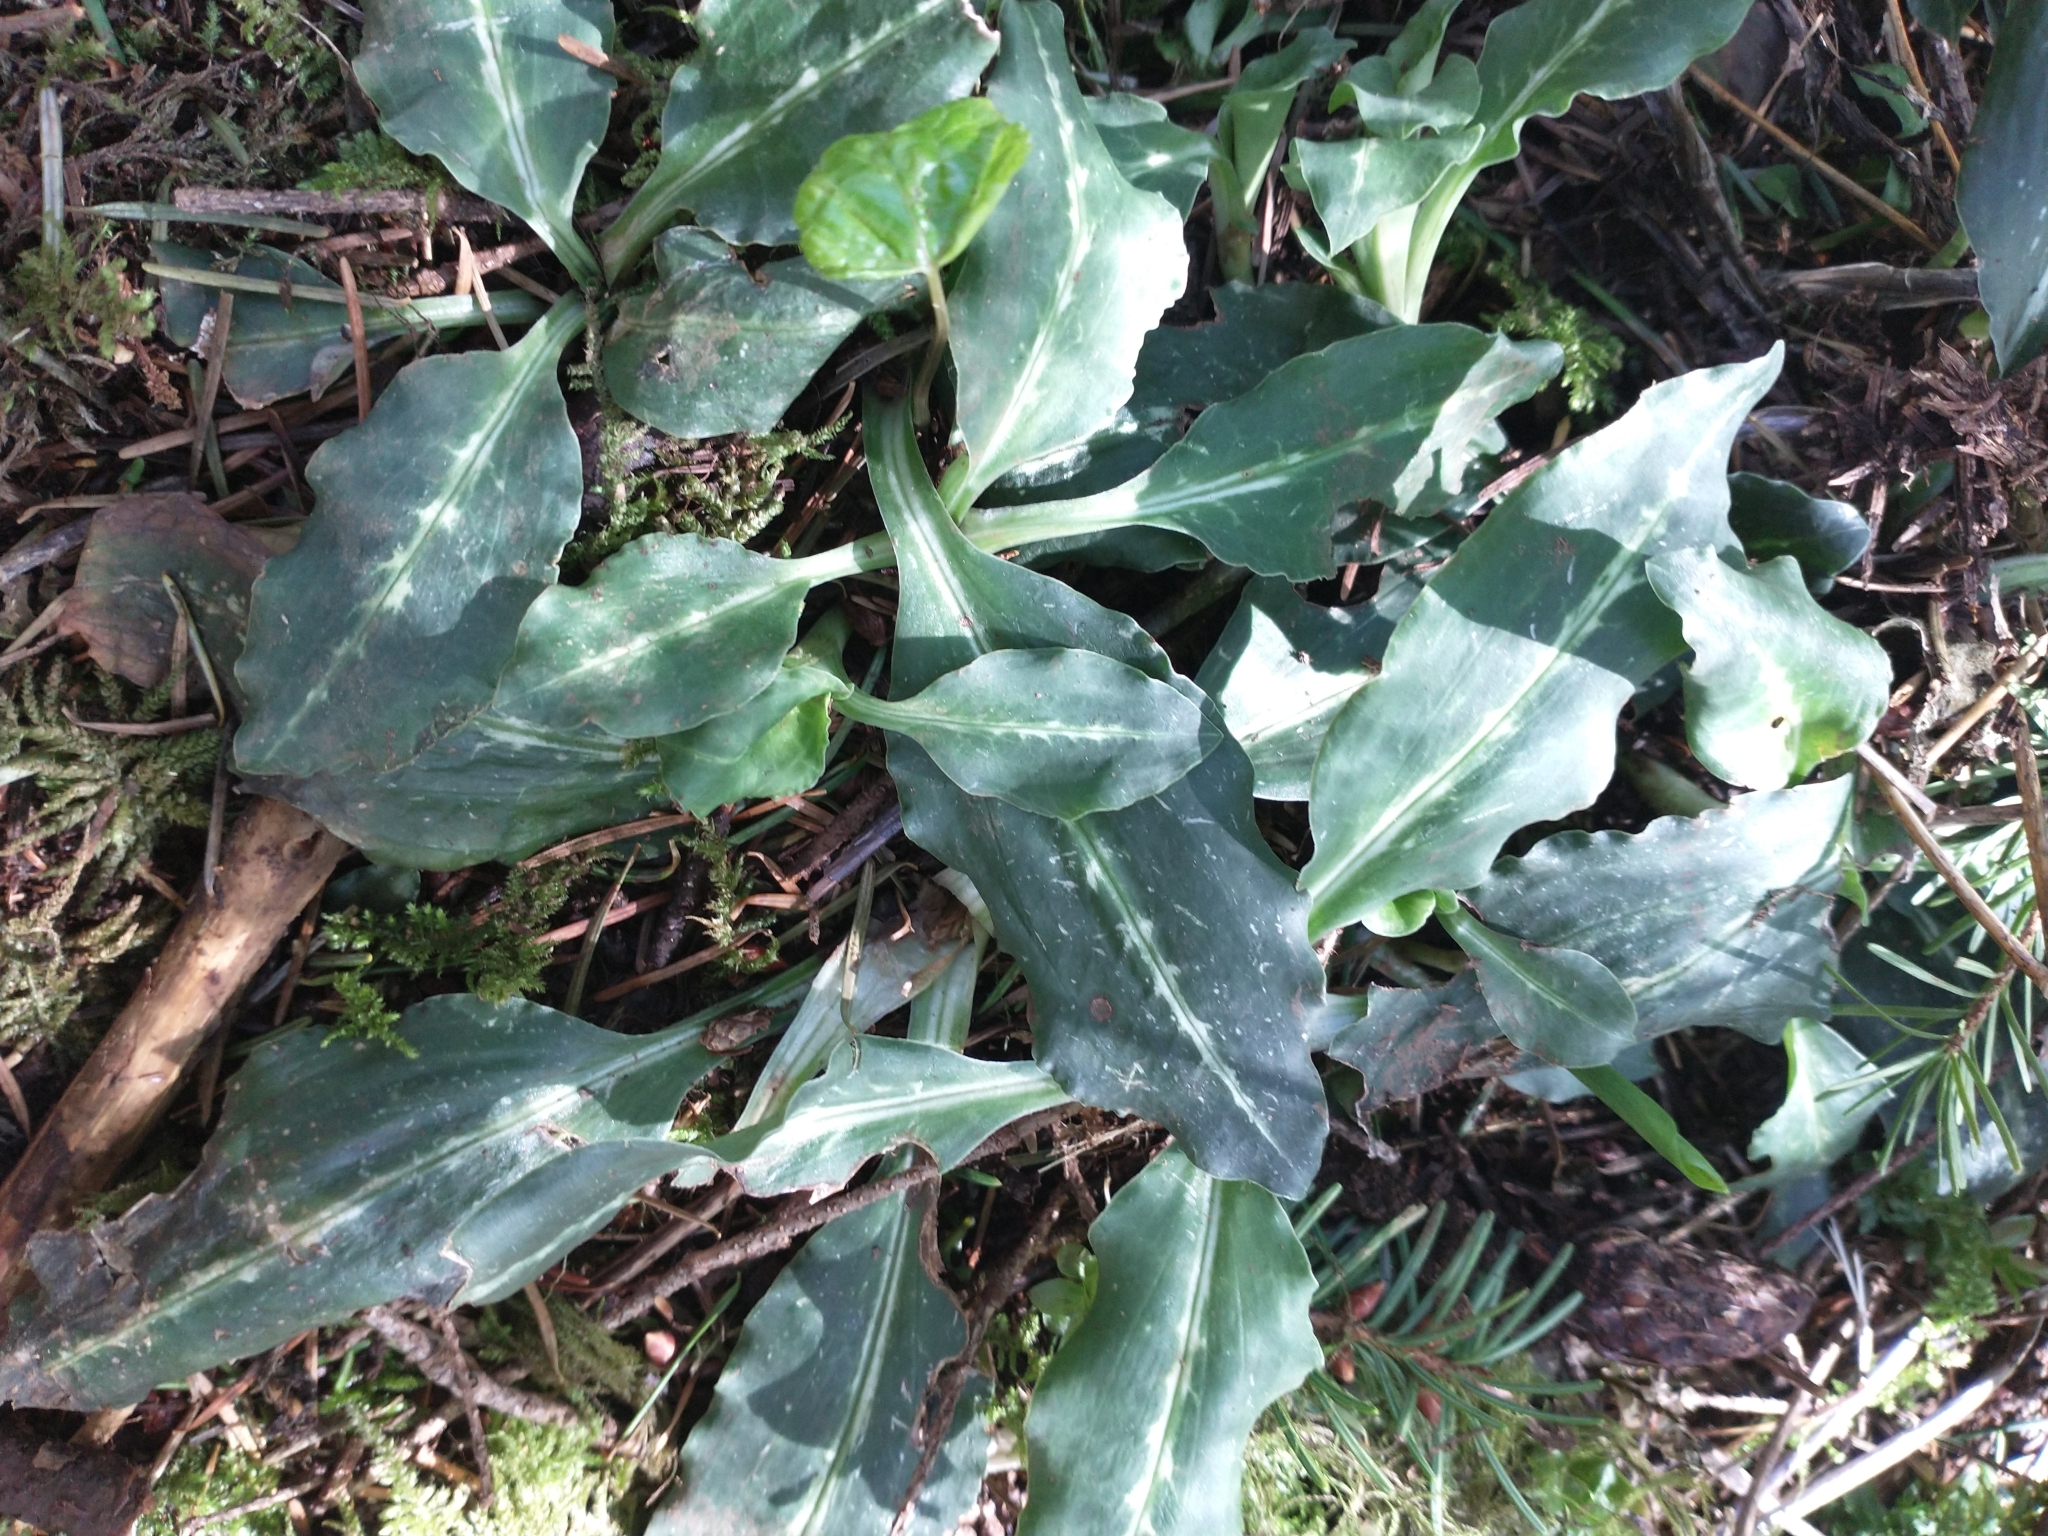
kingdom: Plantae
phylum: Tracheophyta
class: Liliopsida
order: Asparagales
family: Orchidaceae
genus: Goodyera
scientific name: Goodyera oblongifolia
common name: Giant rattlesnake-plantain
